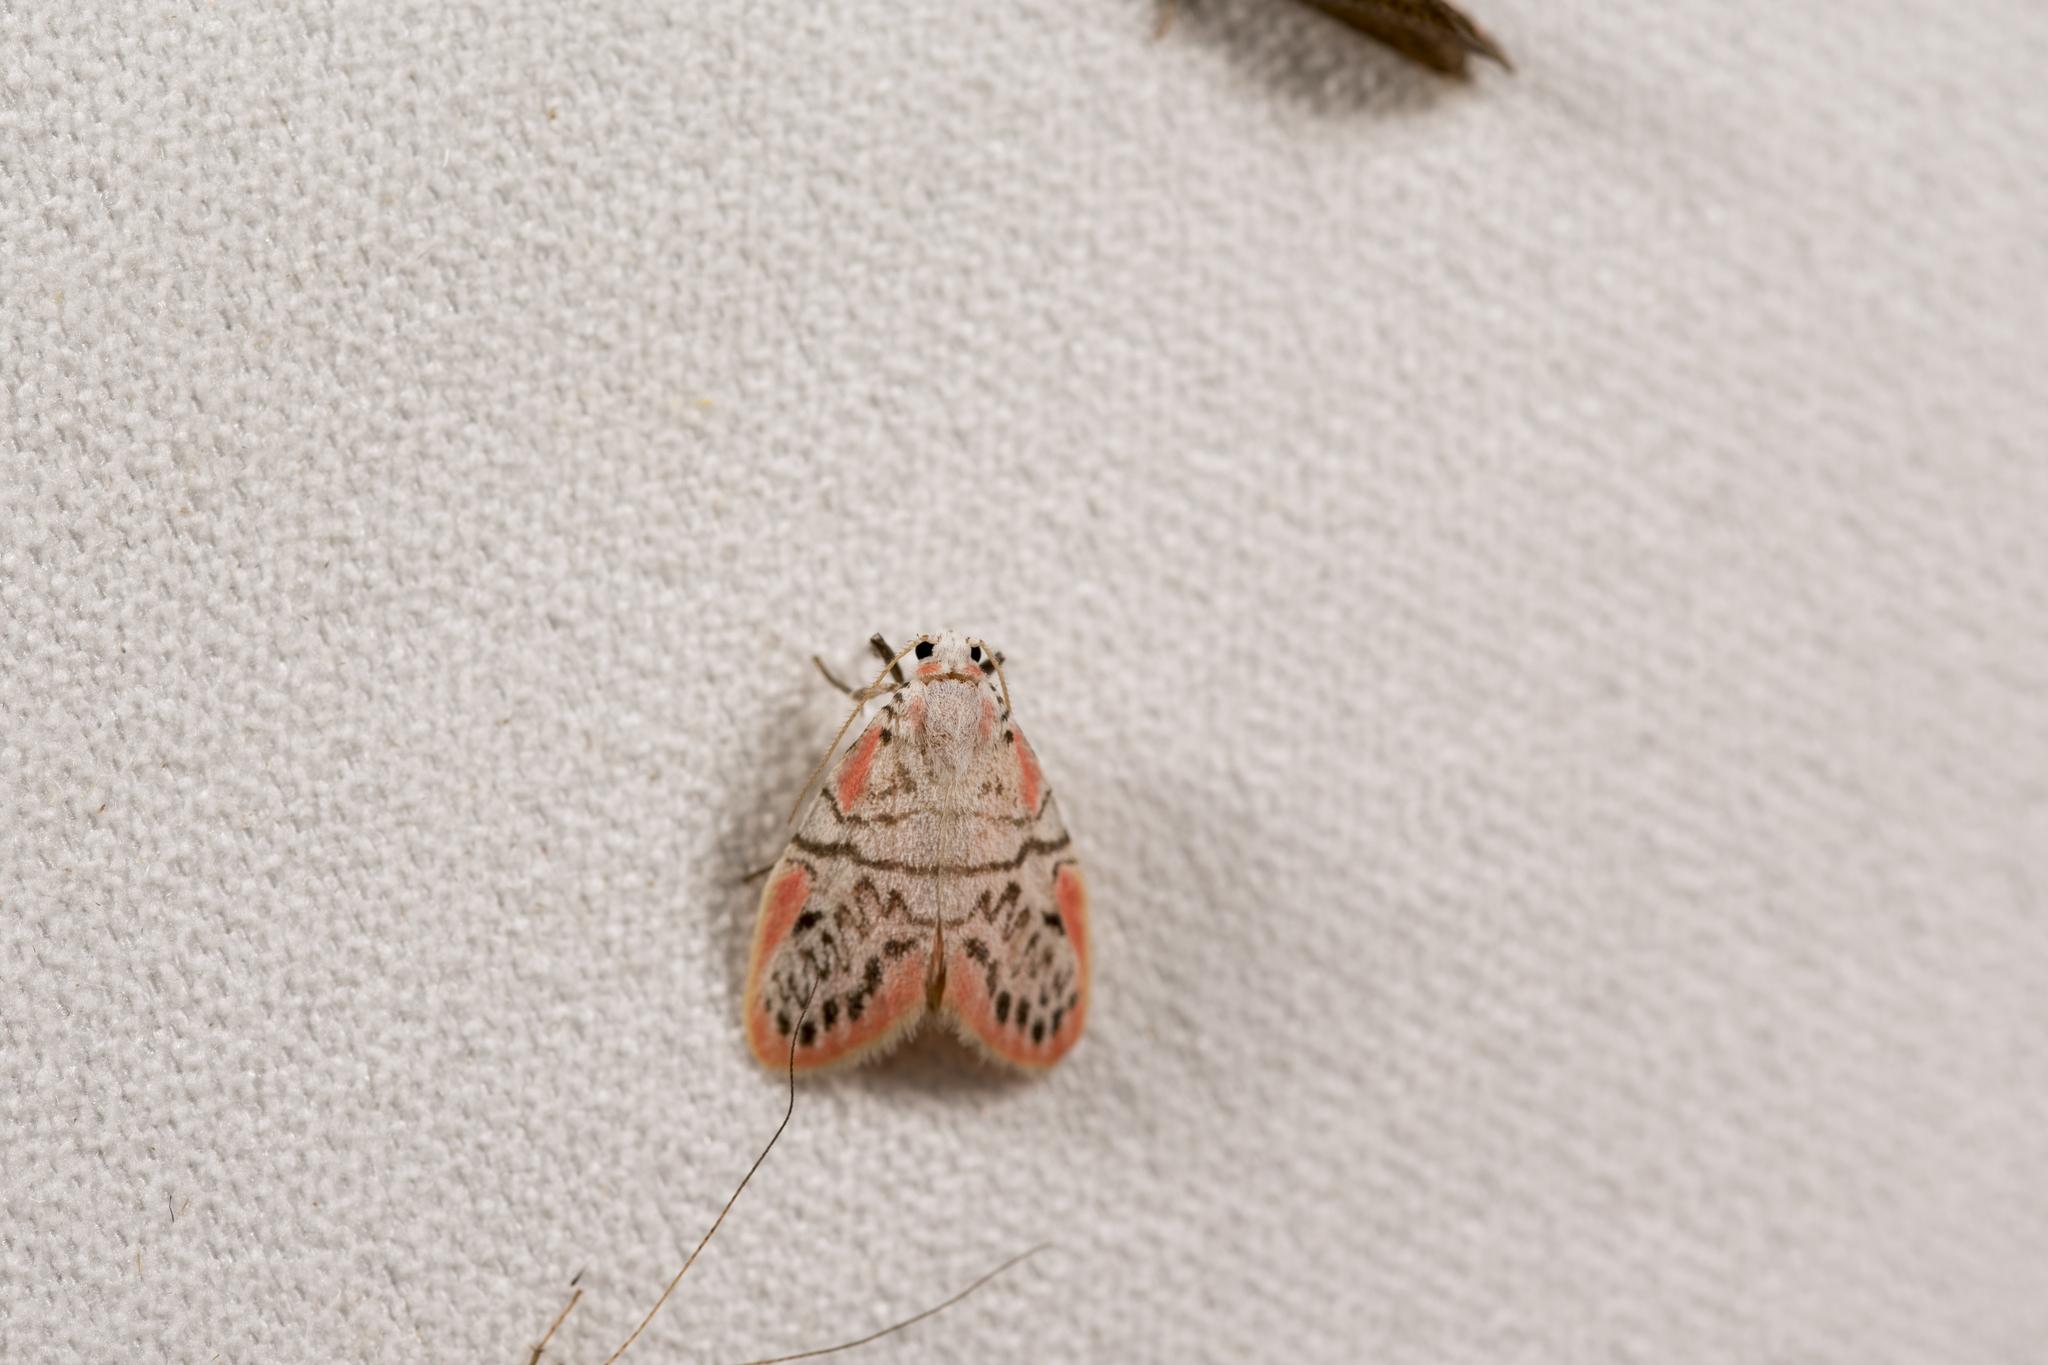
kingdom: Animalia
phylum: Arthropoda
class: Insecta
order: Lepidoptera
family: Erebidae
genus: Miltochrista
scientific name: Miltochrista ziczac
